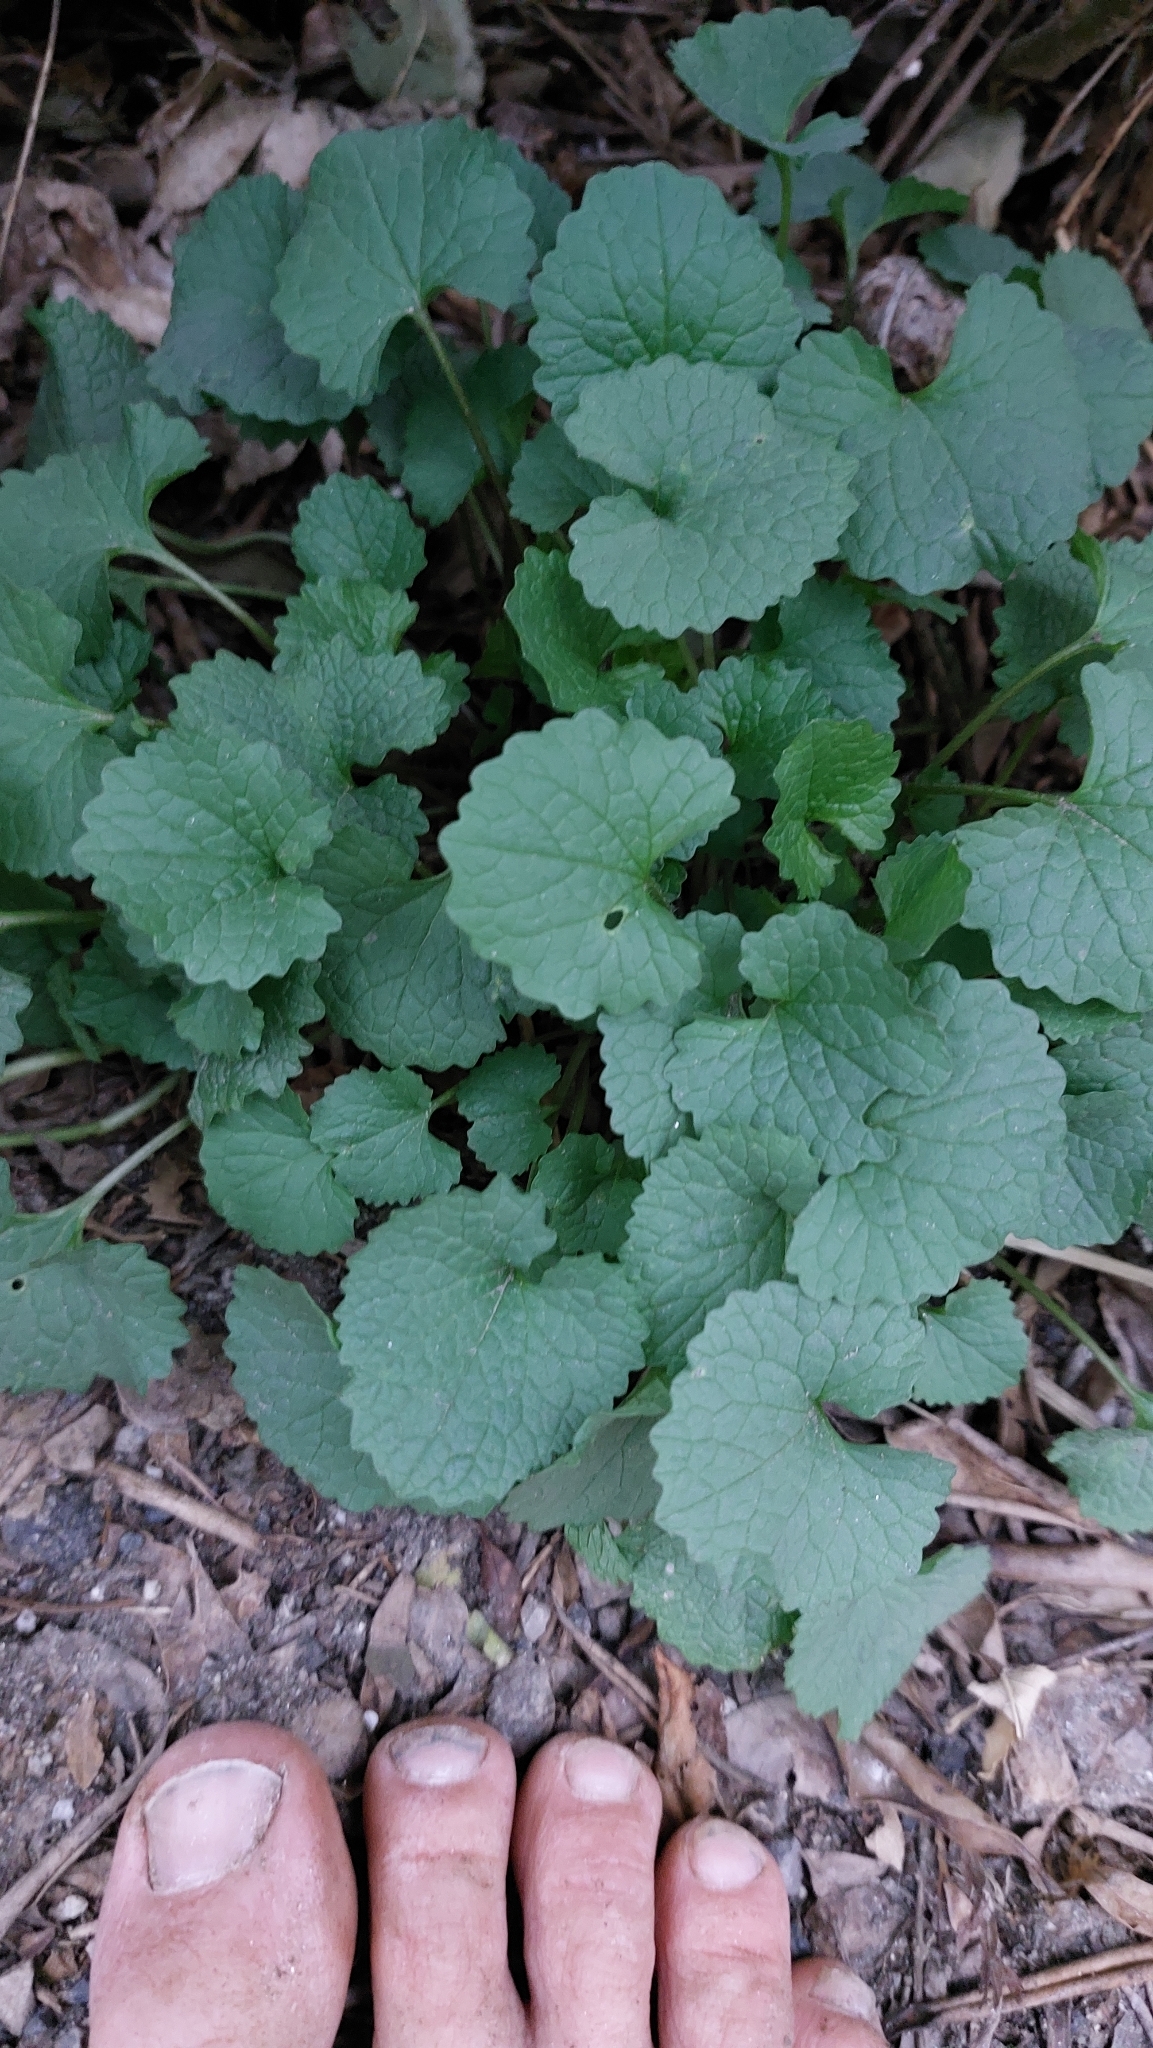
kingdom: Plantae
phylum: Tracheophyta
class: Magnoliopsida
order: Brassicales
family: Brassicaceae
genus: Alliaria
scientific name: Alliaria petiolata
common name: Garlic mustard
